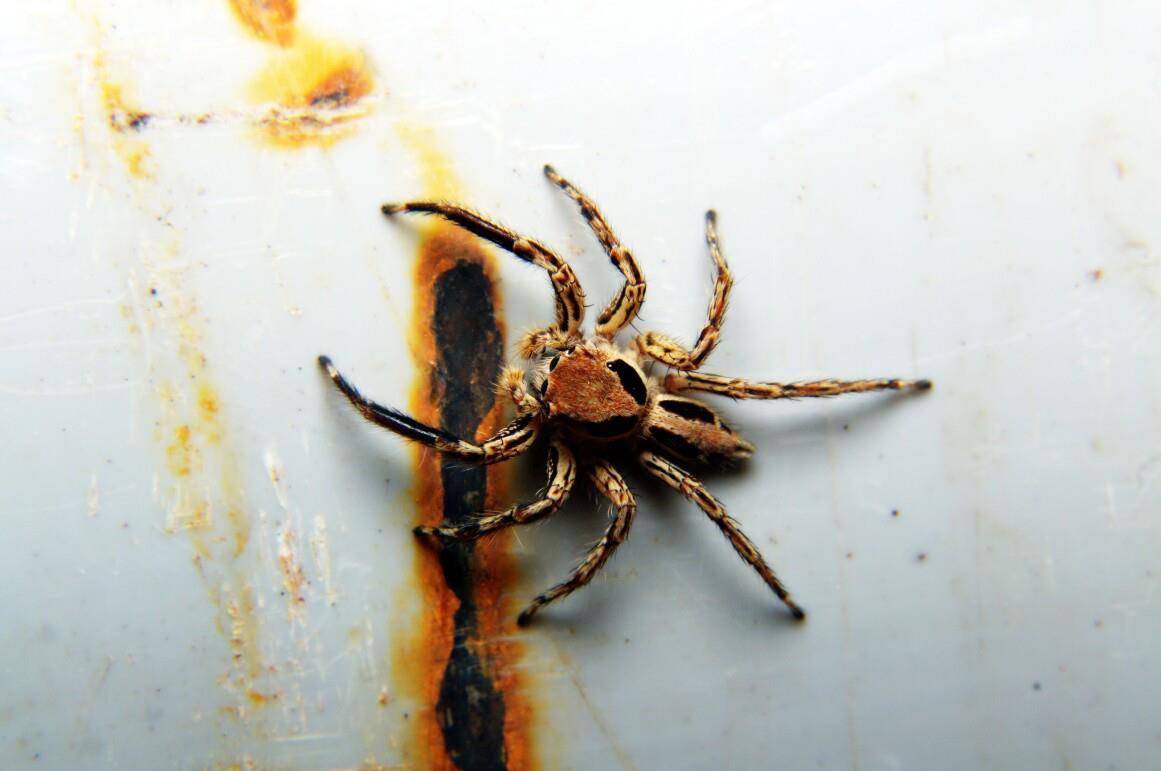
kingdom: Animalia
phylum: Arthropoda
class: Arachnida
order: Araneae
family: Salticidae
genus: Plexippus
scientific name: Plexippus petersi
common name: Jumping spider
